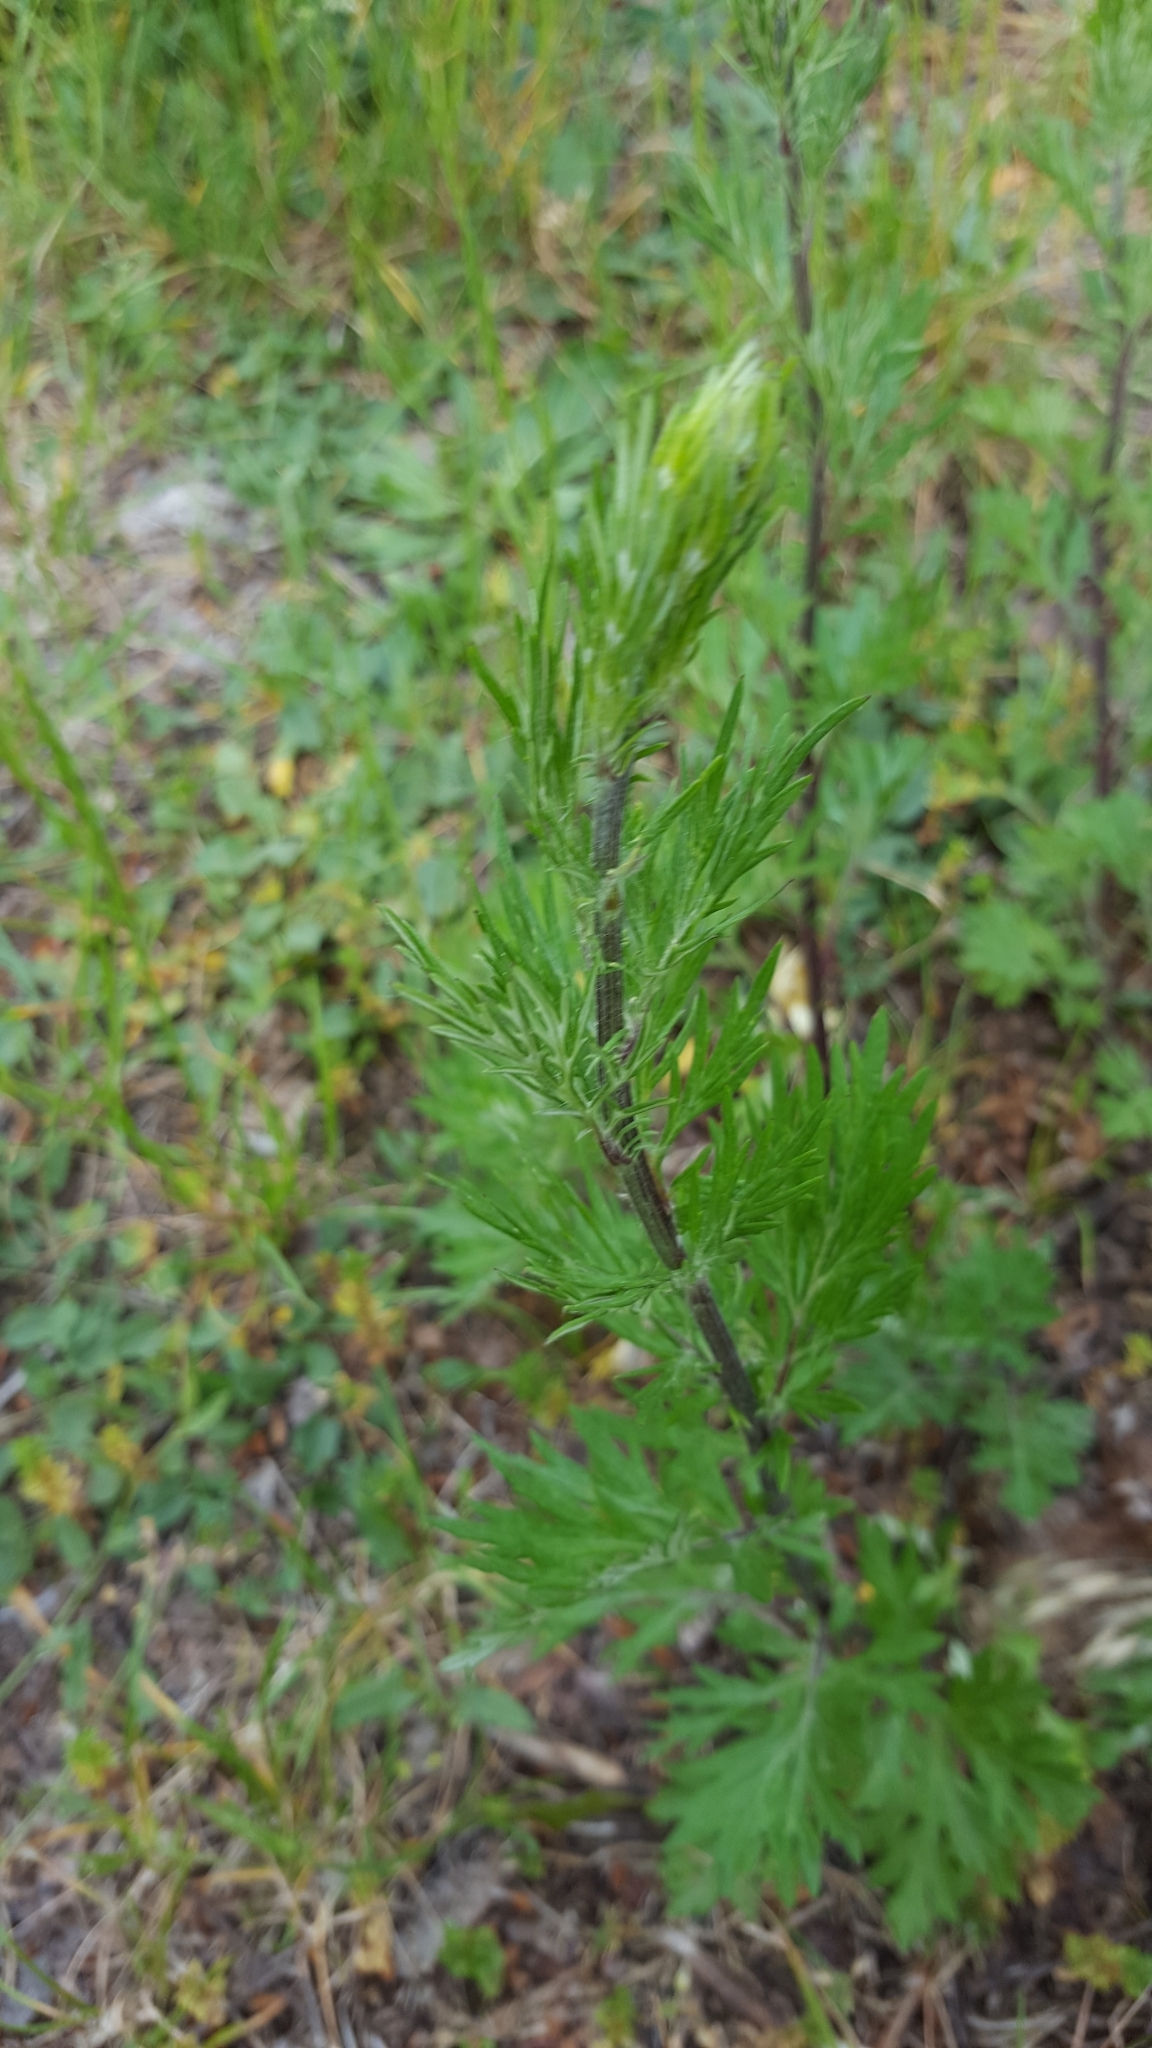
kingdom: Plantae
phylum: Tracheophyta
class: Magnoliopsida
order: Asterales
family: Asteraceae
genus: Artemisia
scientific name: Artemisia vulgaris
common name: Mugwort
